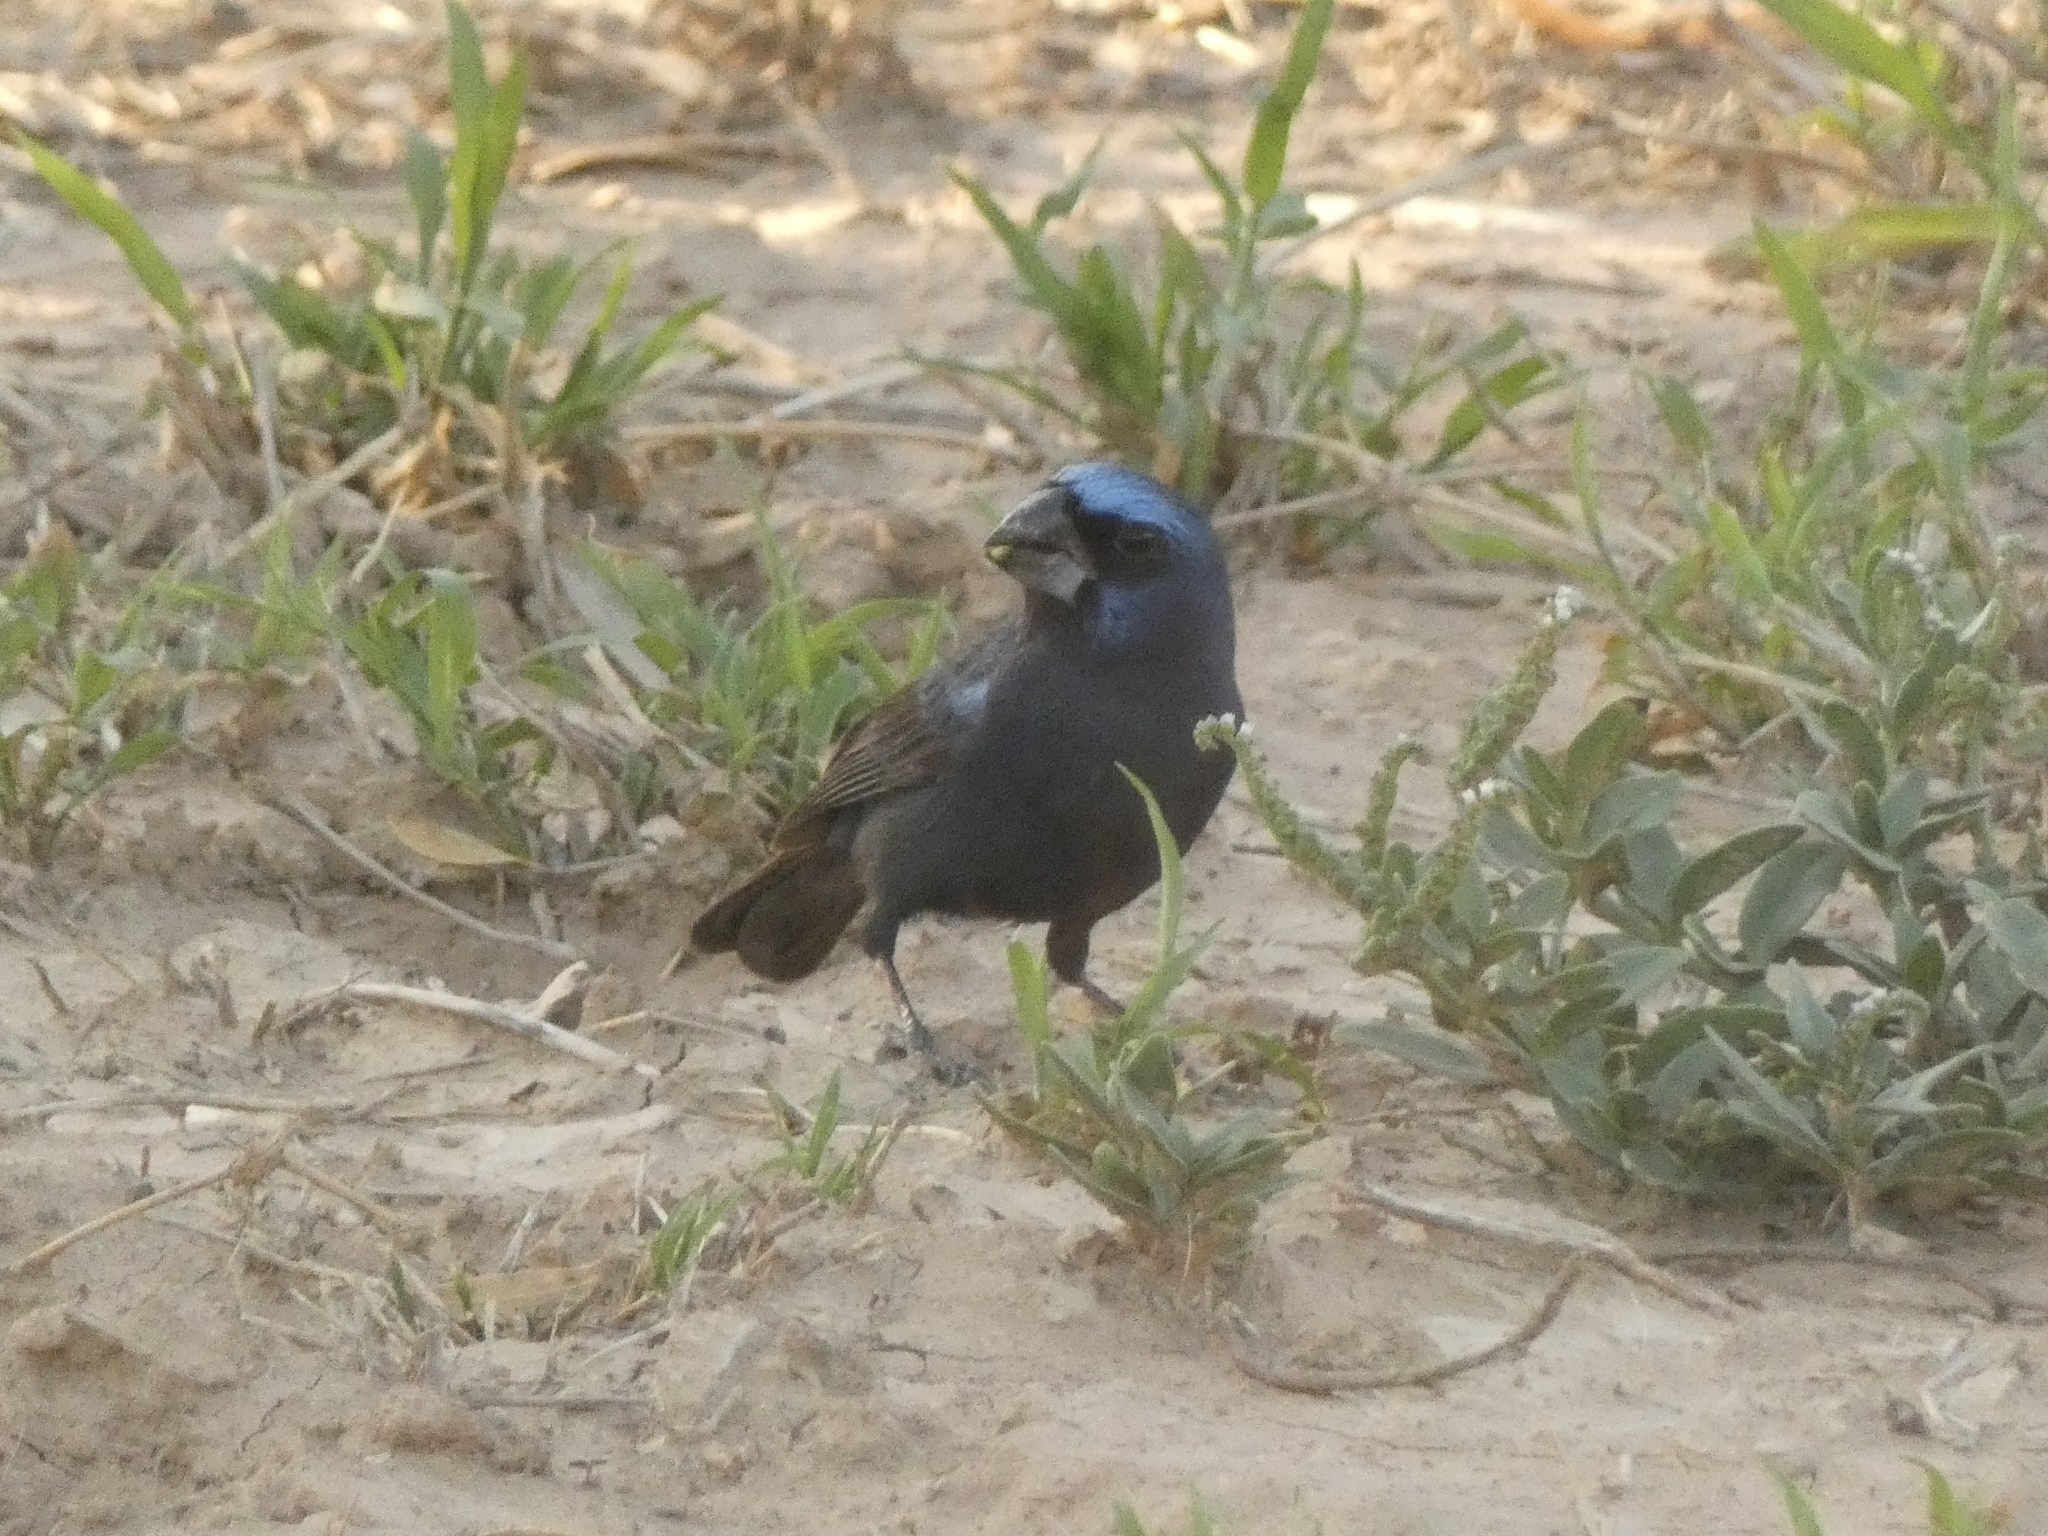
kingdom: Animalia
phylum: Chordata
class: Aves
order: Passeriformes
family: Cardinalidae
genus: Cyanoloxia
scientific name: Cyanoloxia brissonii
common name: Ultramarine grosbeak
